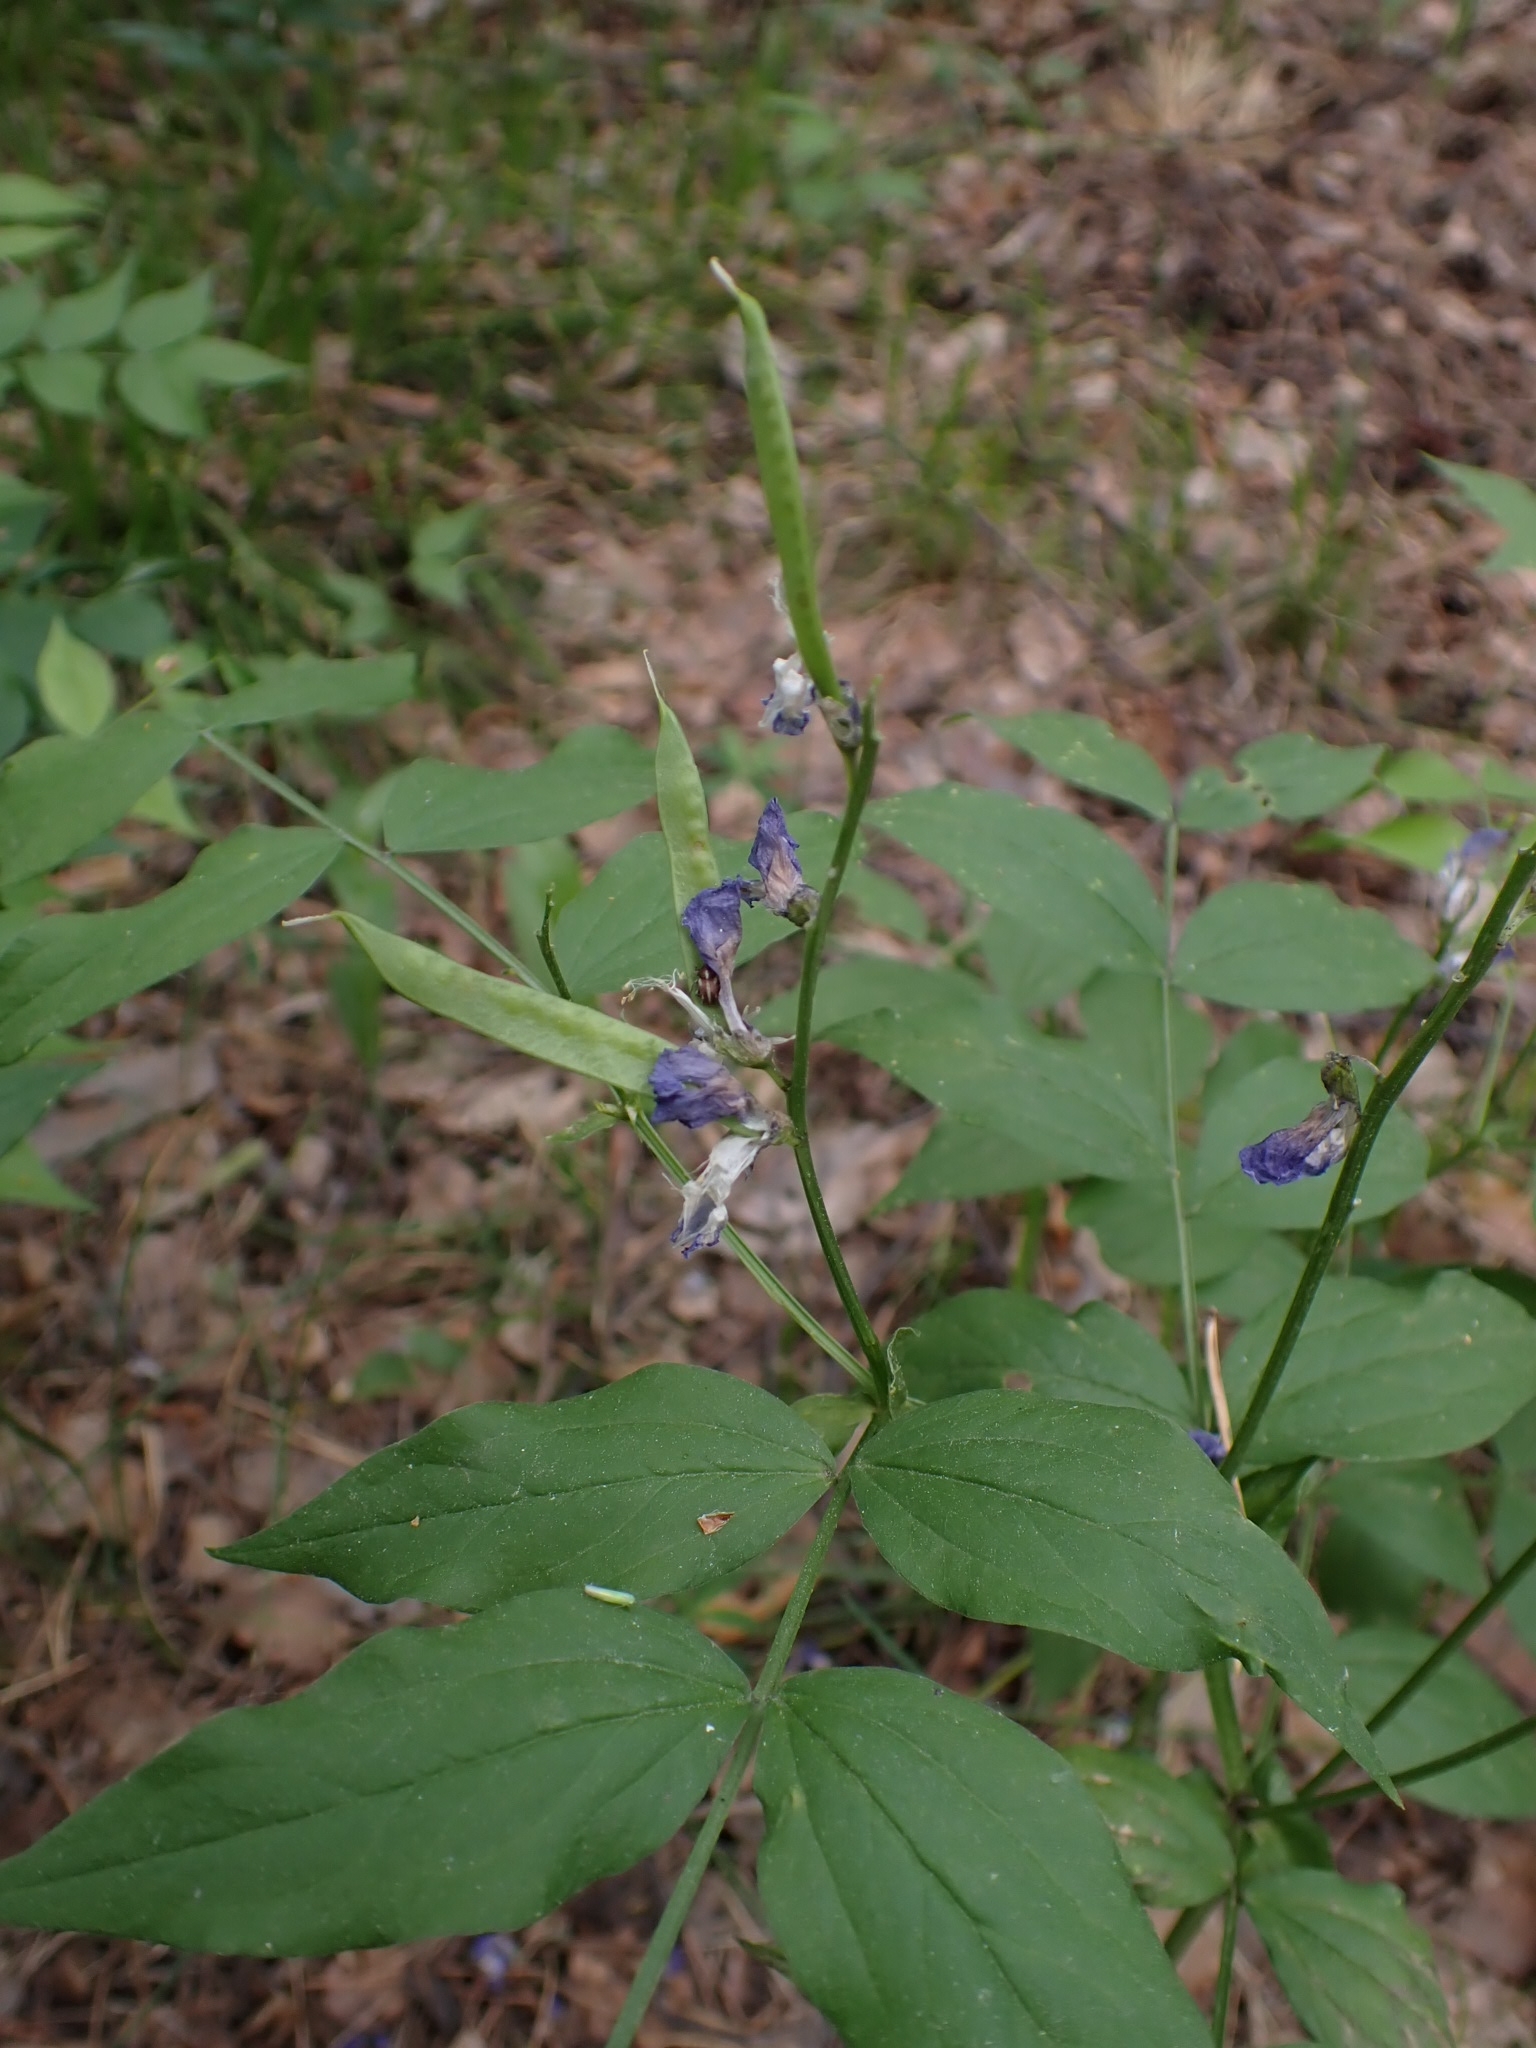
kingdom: Plantae
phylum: Tracheophyta
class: Magnoliopsida
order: Fabales
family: Fabaceae
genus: Lathyrus
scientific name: Lathyrus vernus
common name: Spring pea
